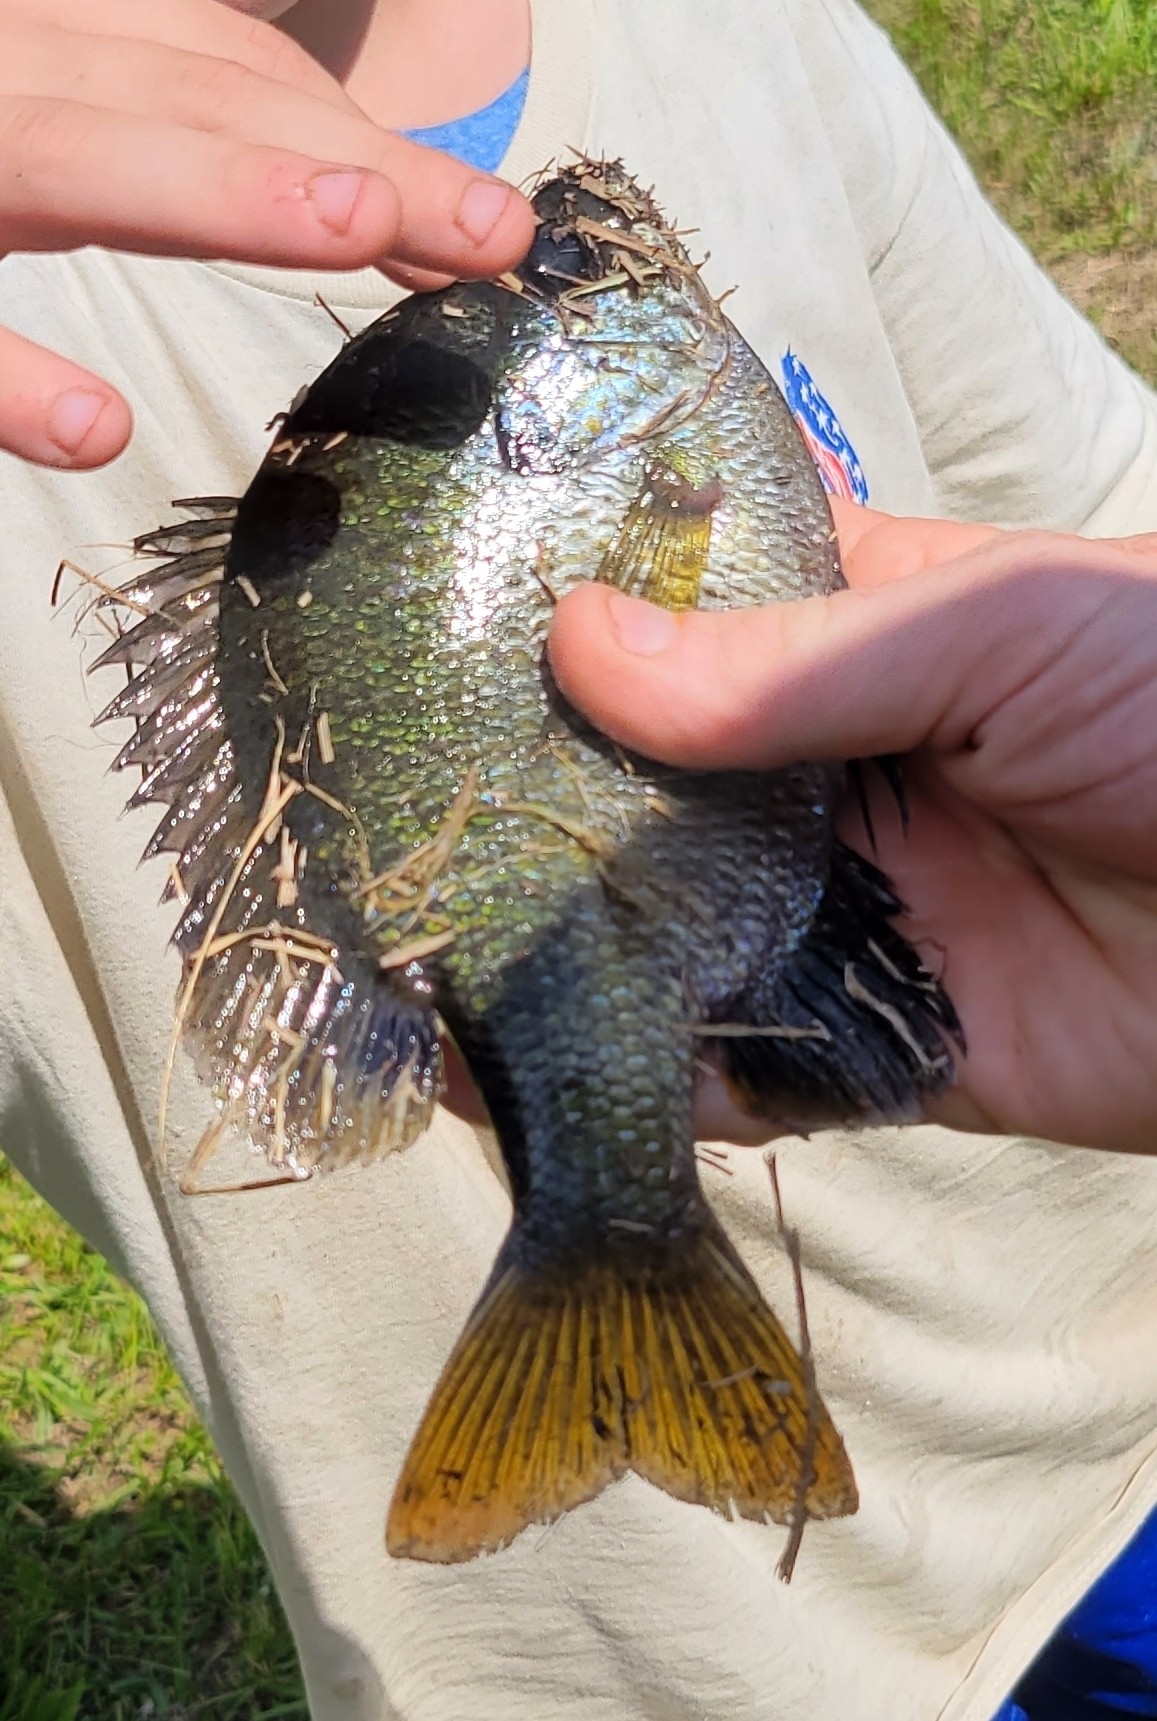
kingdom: Animalia
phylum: Chordata
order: Perciformes
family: Centrarchidae
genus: Lepomis
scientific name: Lepomis macrochirus
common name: Bluegill
